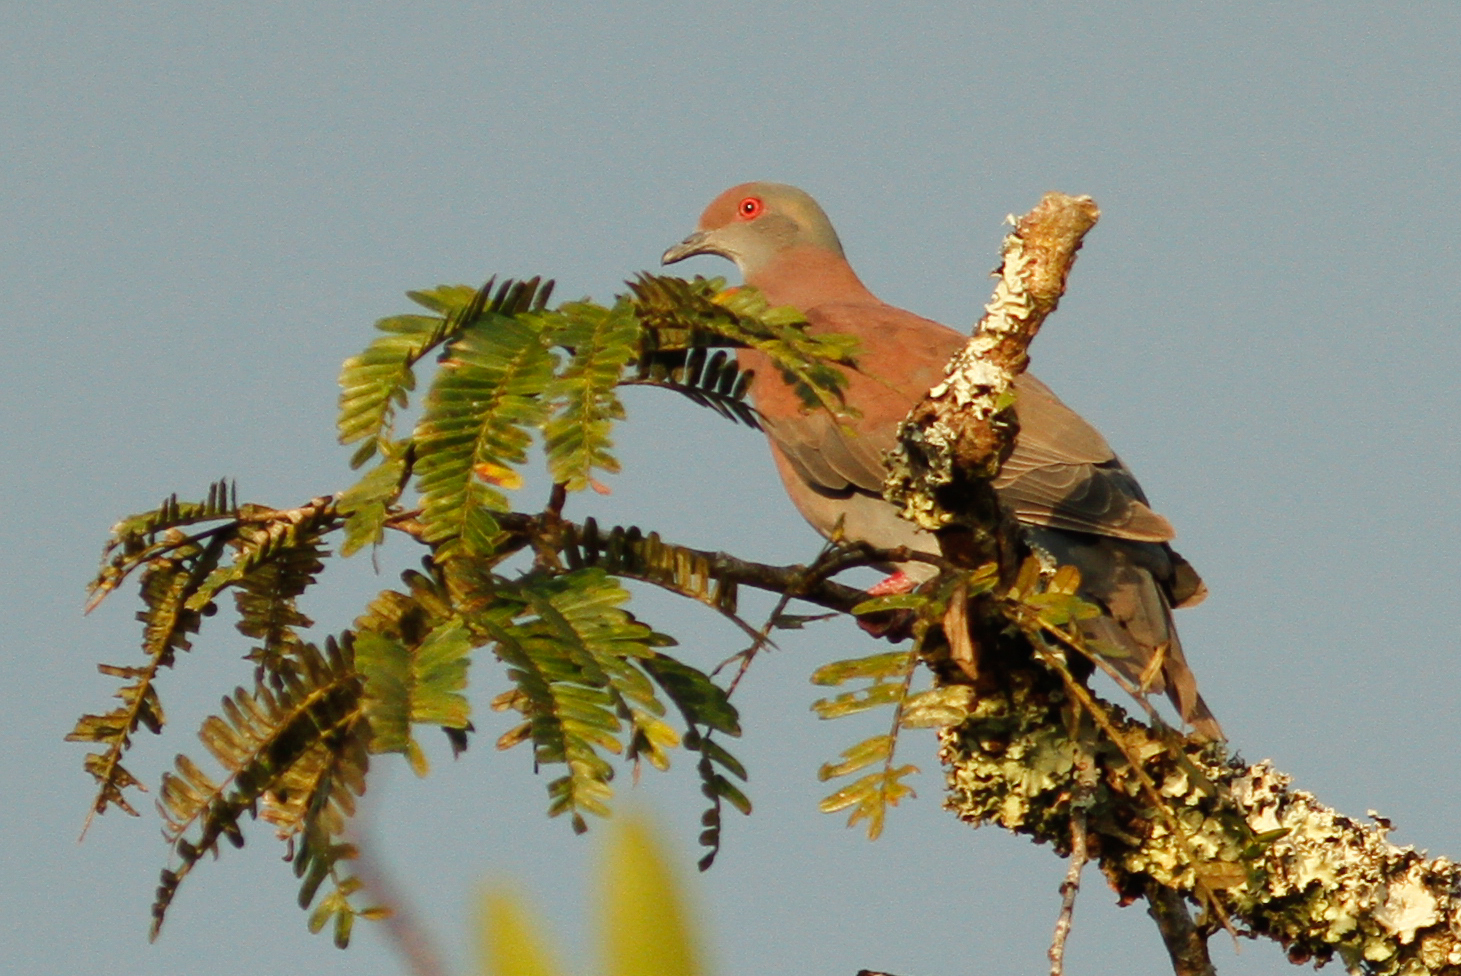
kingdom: Animalia
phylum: Chordata
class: Aves
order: Columbiformes
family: Columbidae
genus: Patagioenas
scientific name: Patagioenas cayennensis
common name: Pale-vented pigeon
